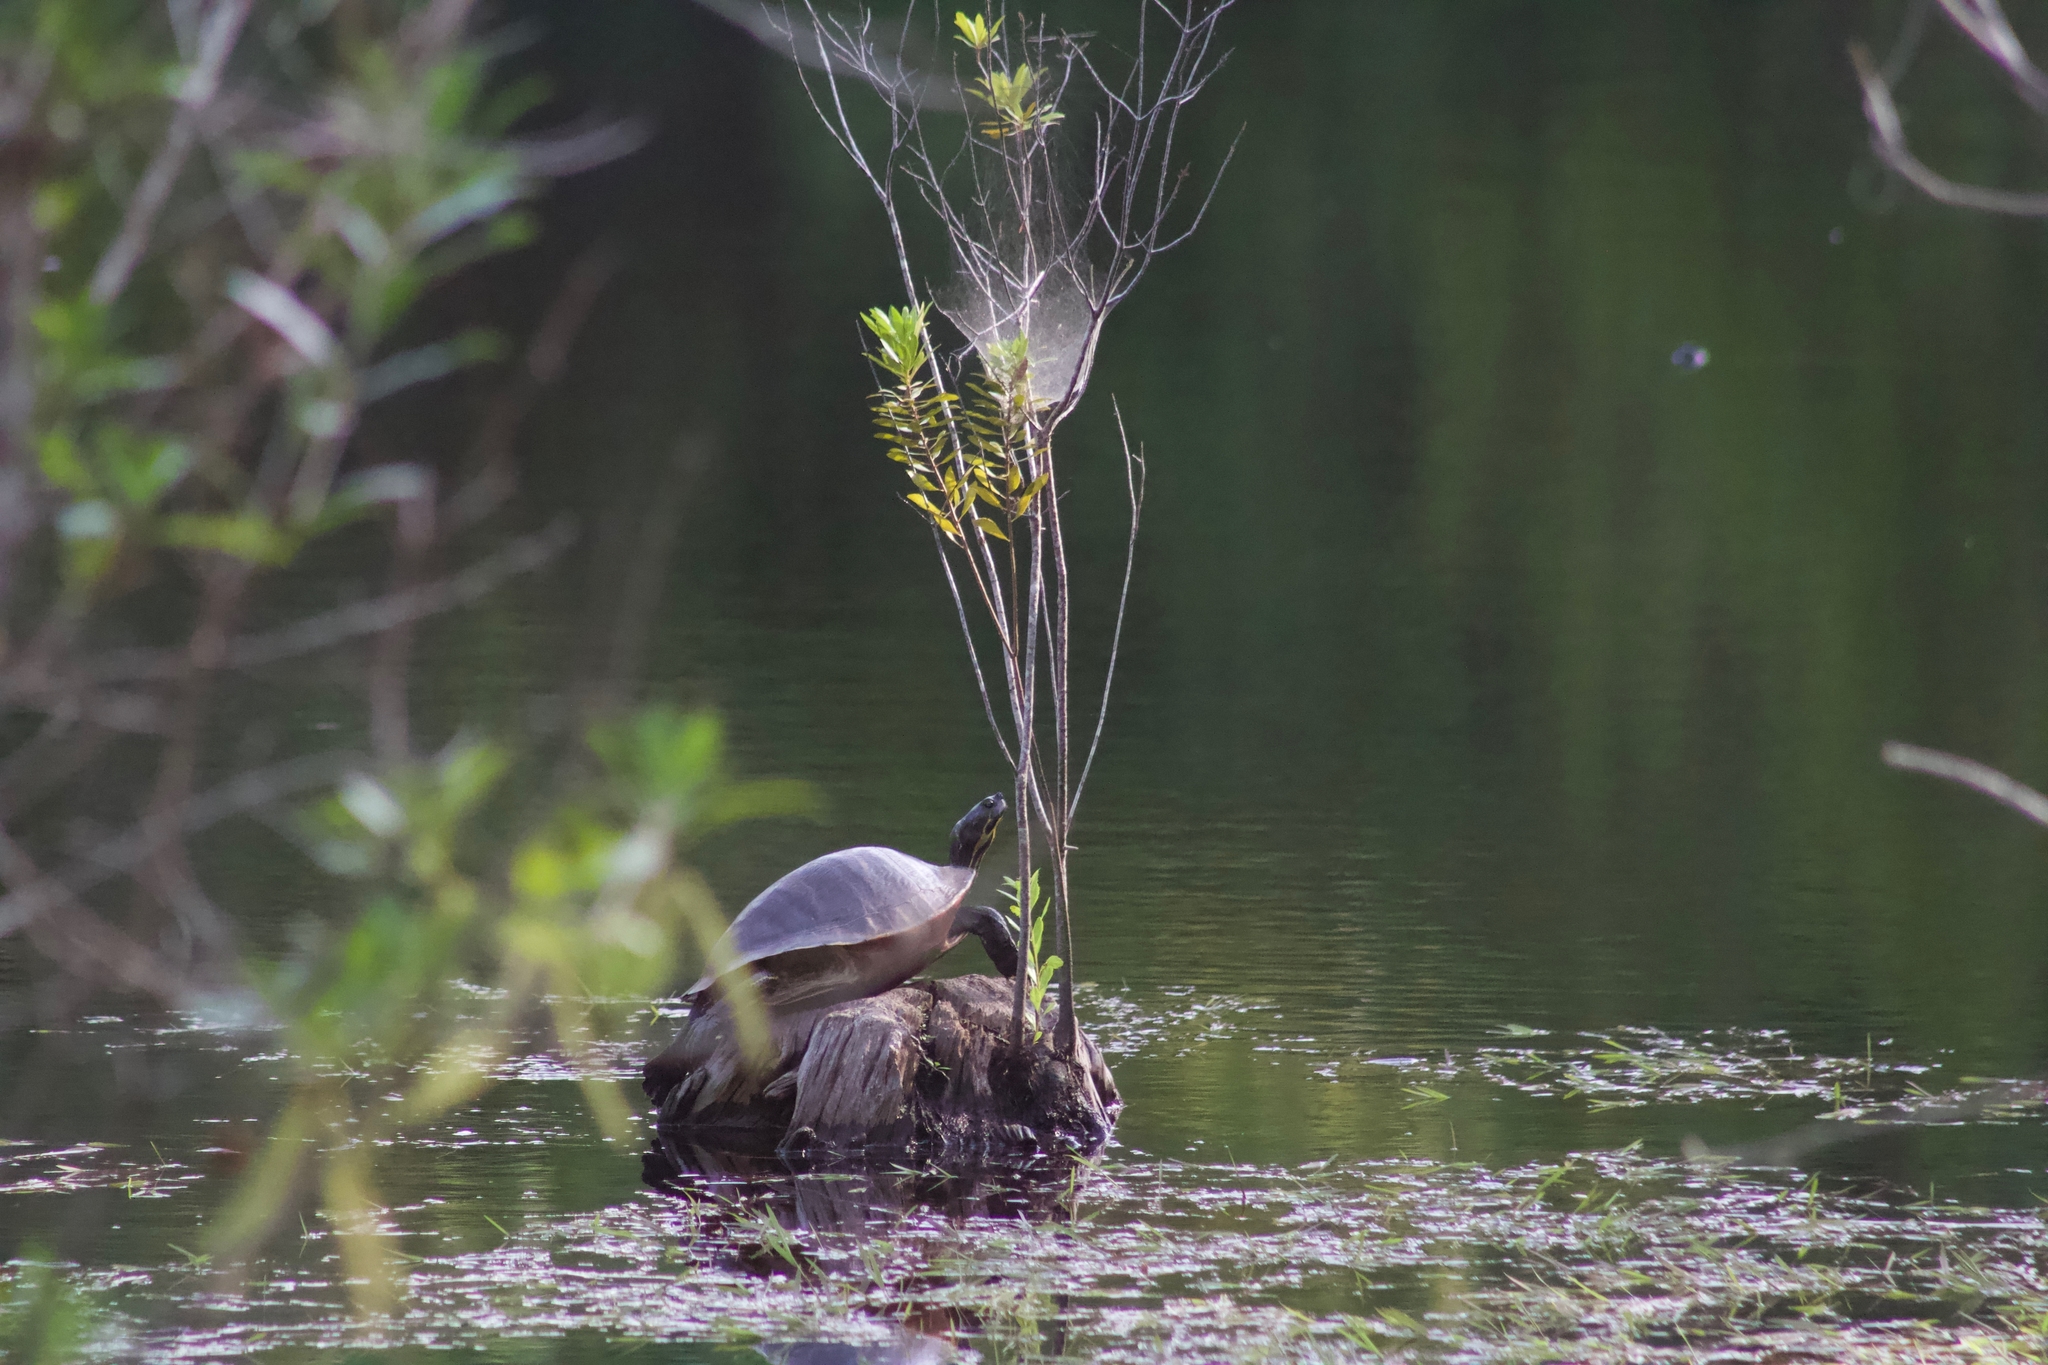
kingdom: Animalia
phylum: Chordata
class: Testudines
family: Emydidae
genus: Pseudemys
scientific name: Pseudemys concinna
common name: Eastern river cooter
